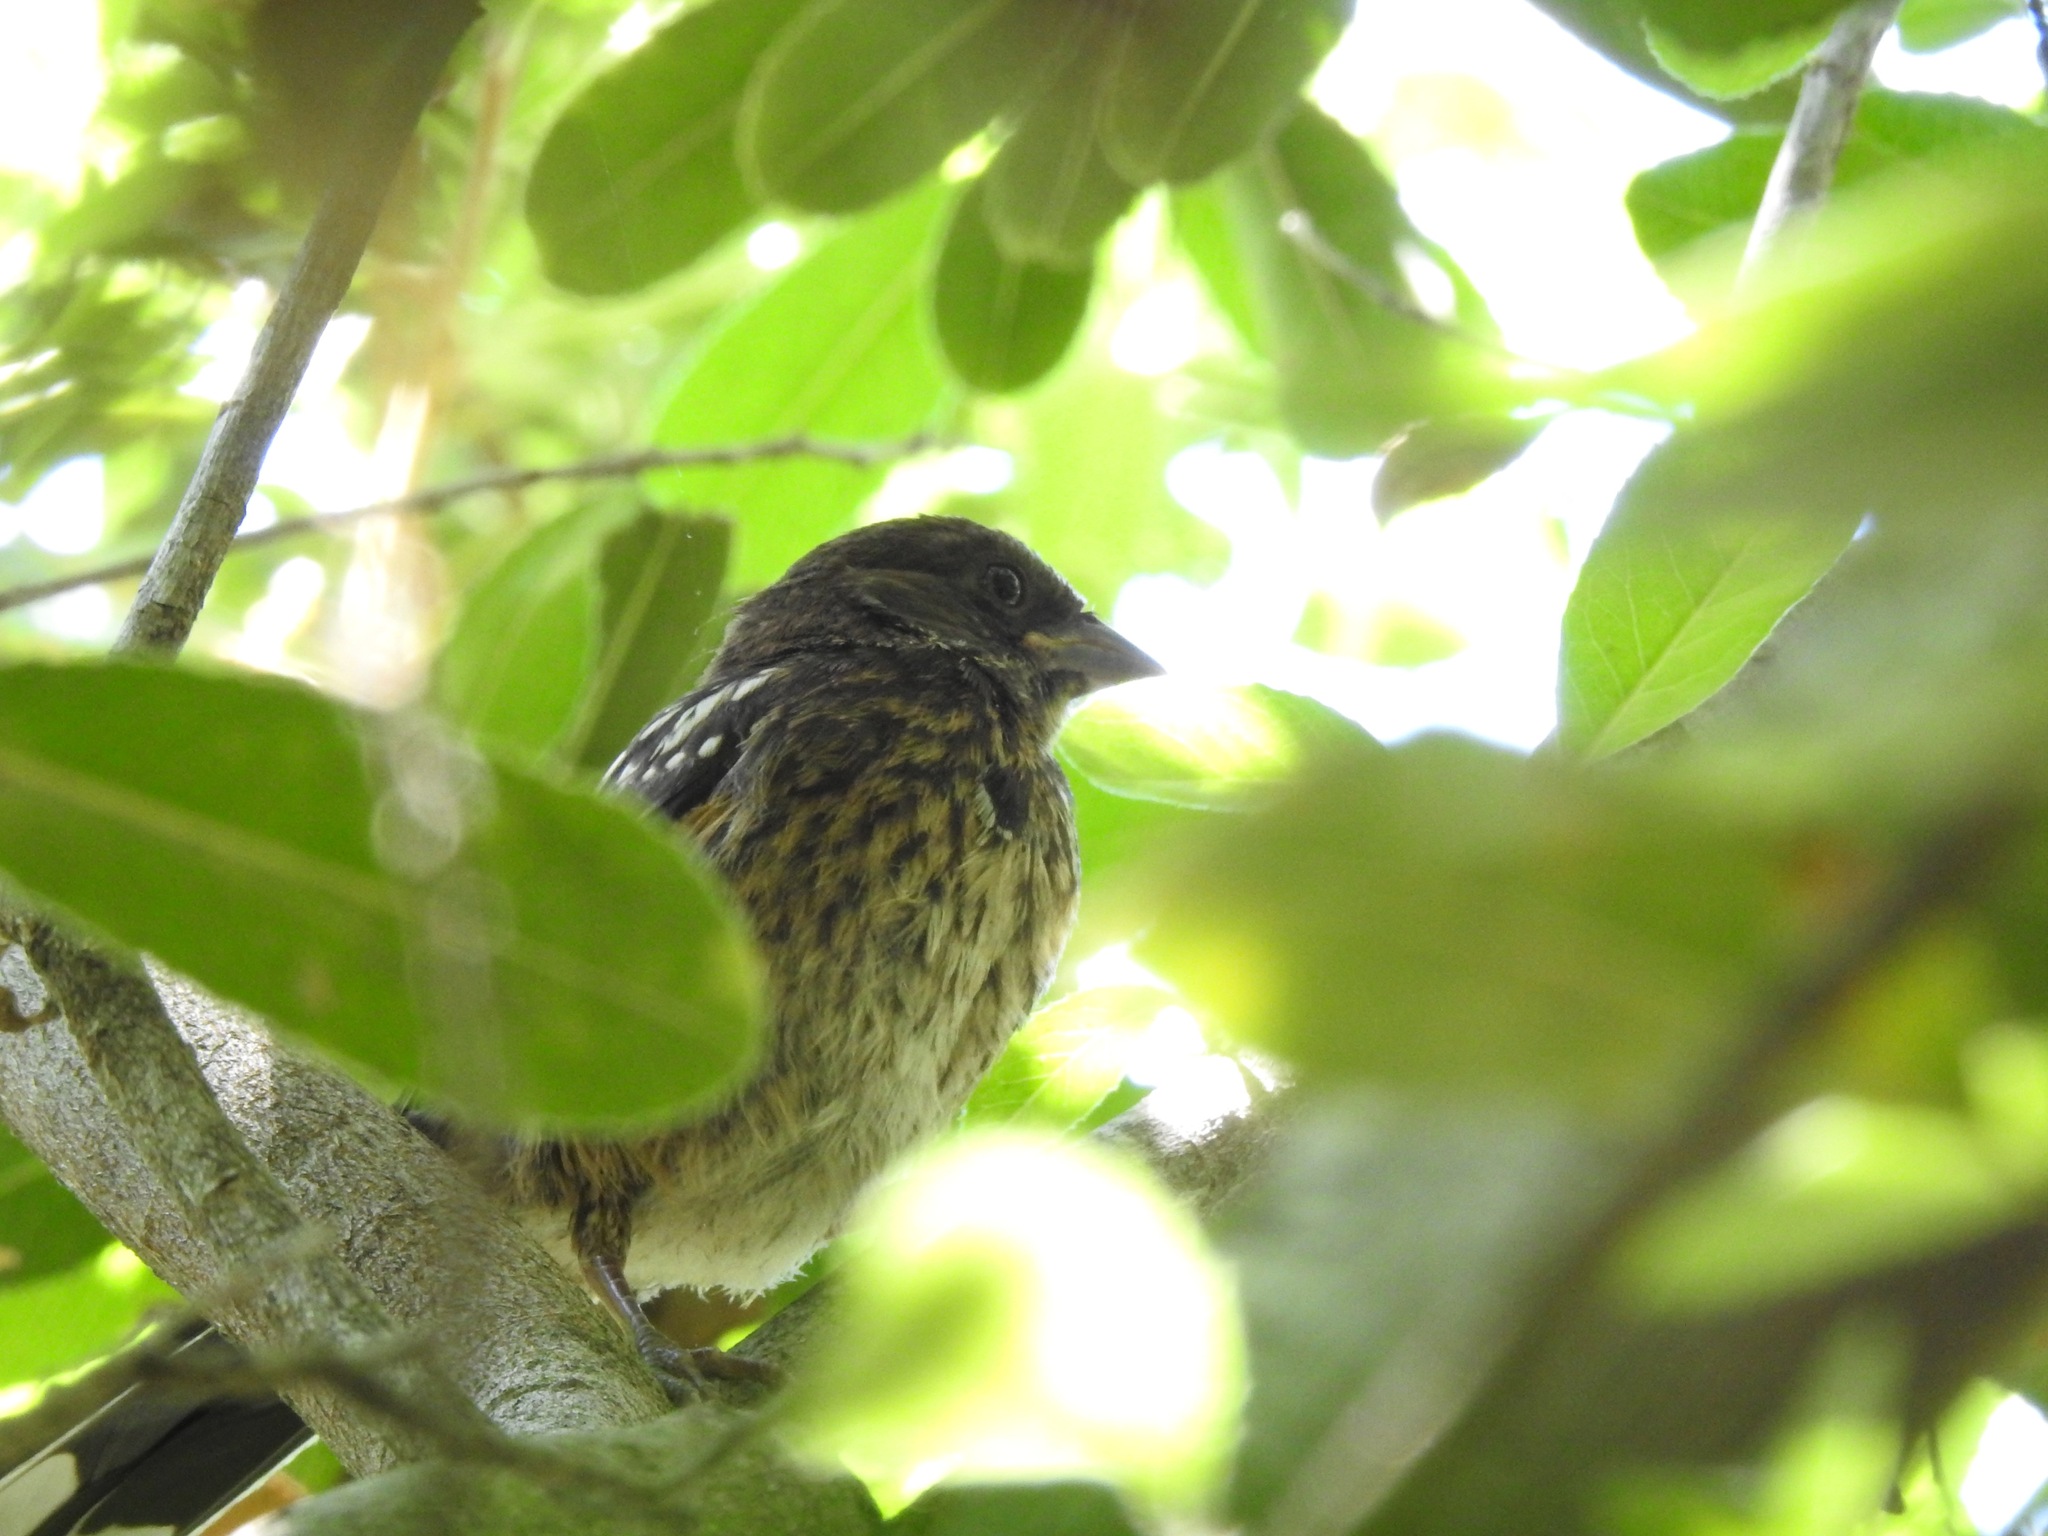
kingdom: Animalia
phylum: Chordata
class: Aves
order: Passeriformes
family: Passerellidae
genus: Pipilo
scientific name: Pipilo maculatus
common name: Spotted towhee
